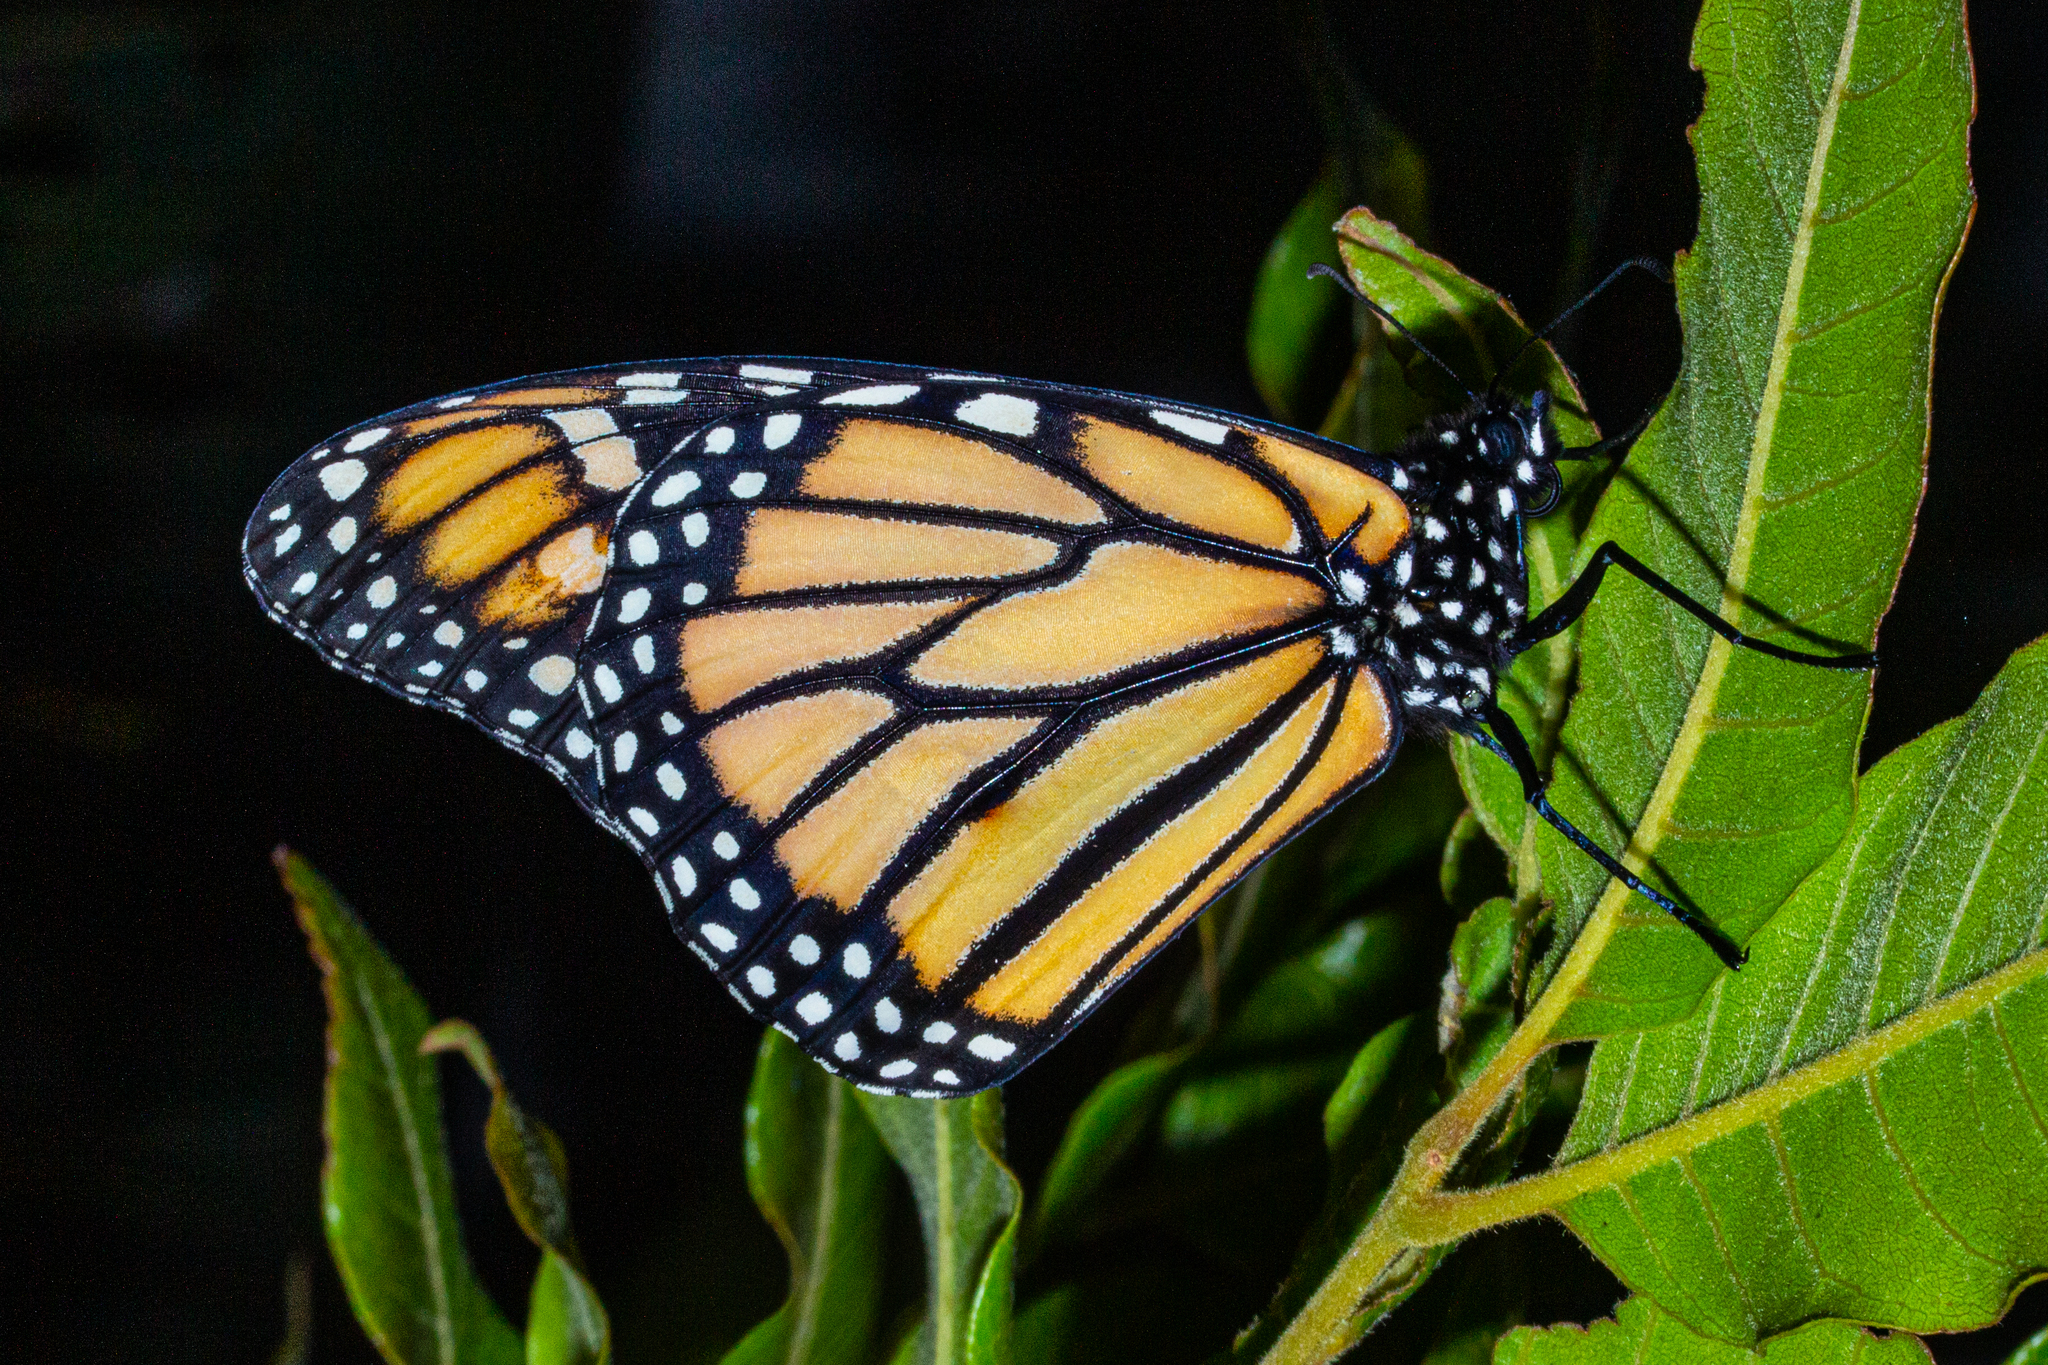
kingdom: Animalia
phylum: Arthropoda
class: Insecta
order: Lepidoptera
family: Nymphalidae
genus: Danaus
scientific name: Danaus plexippus
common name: Monarch
